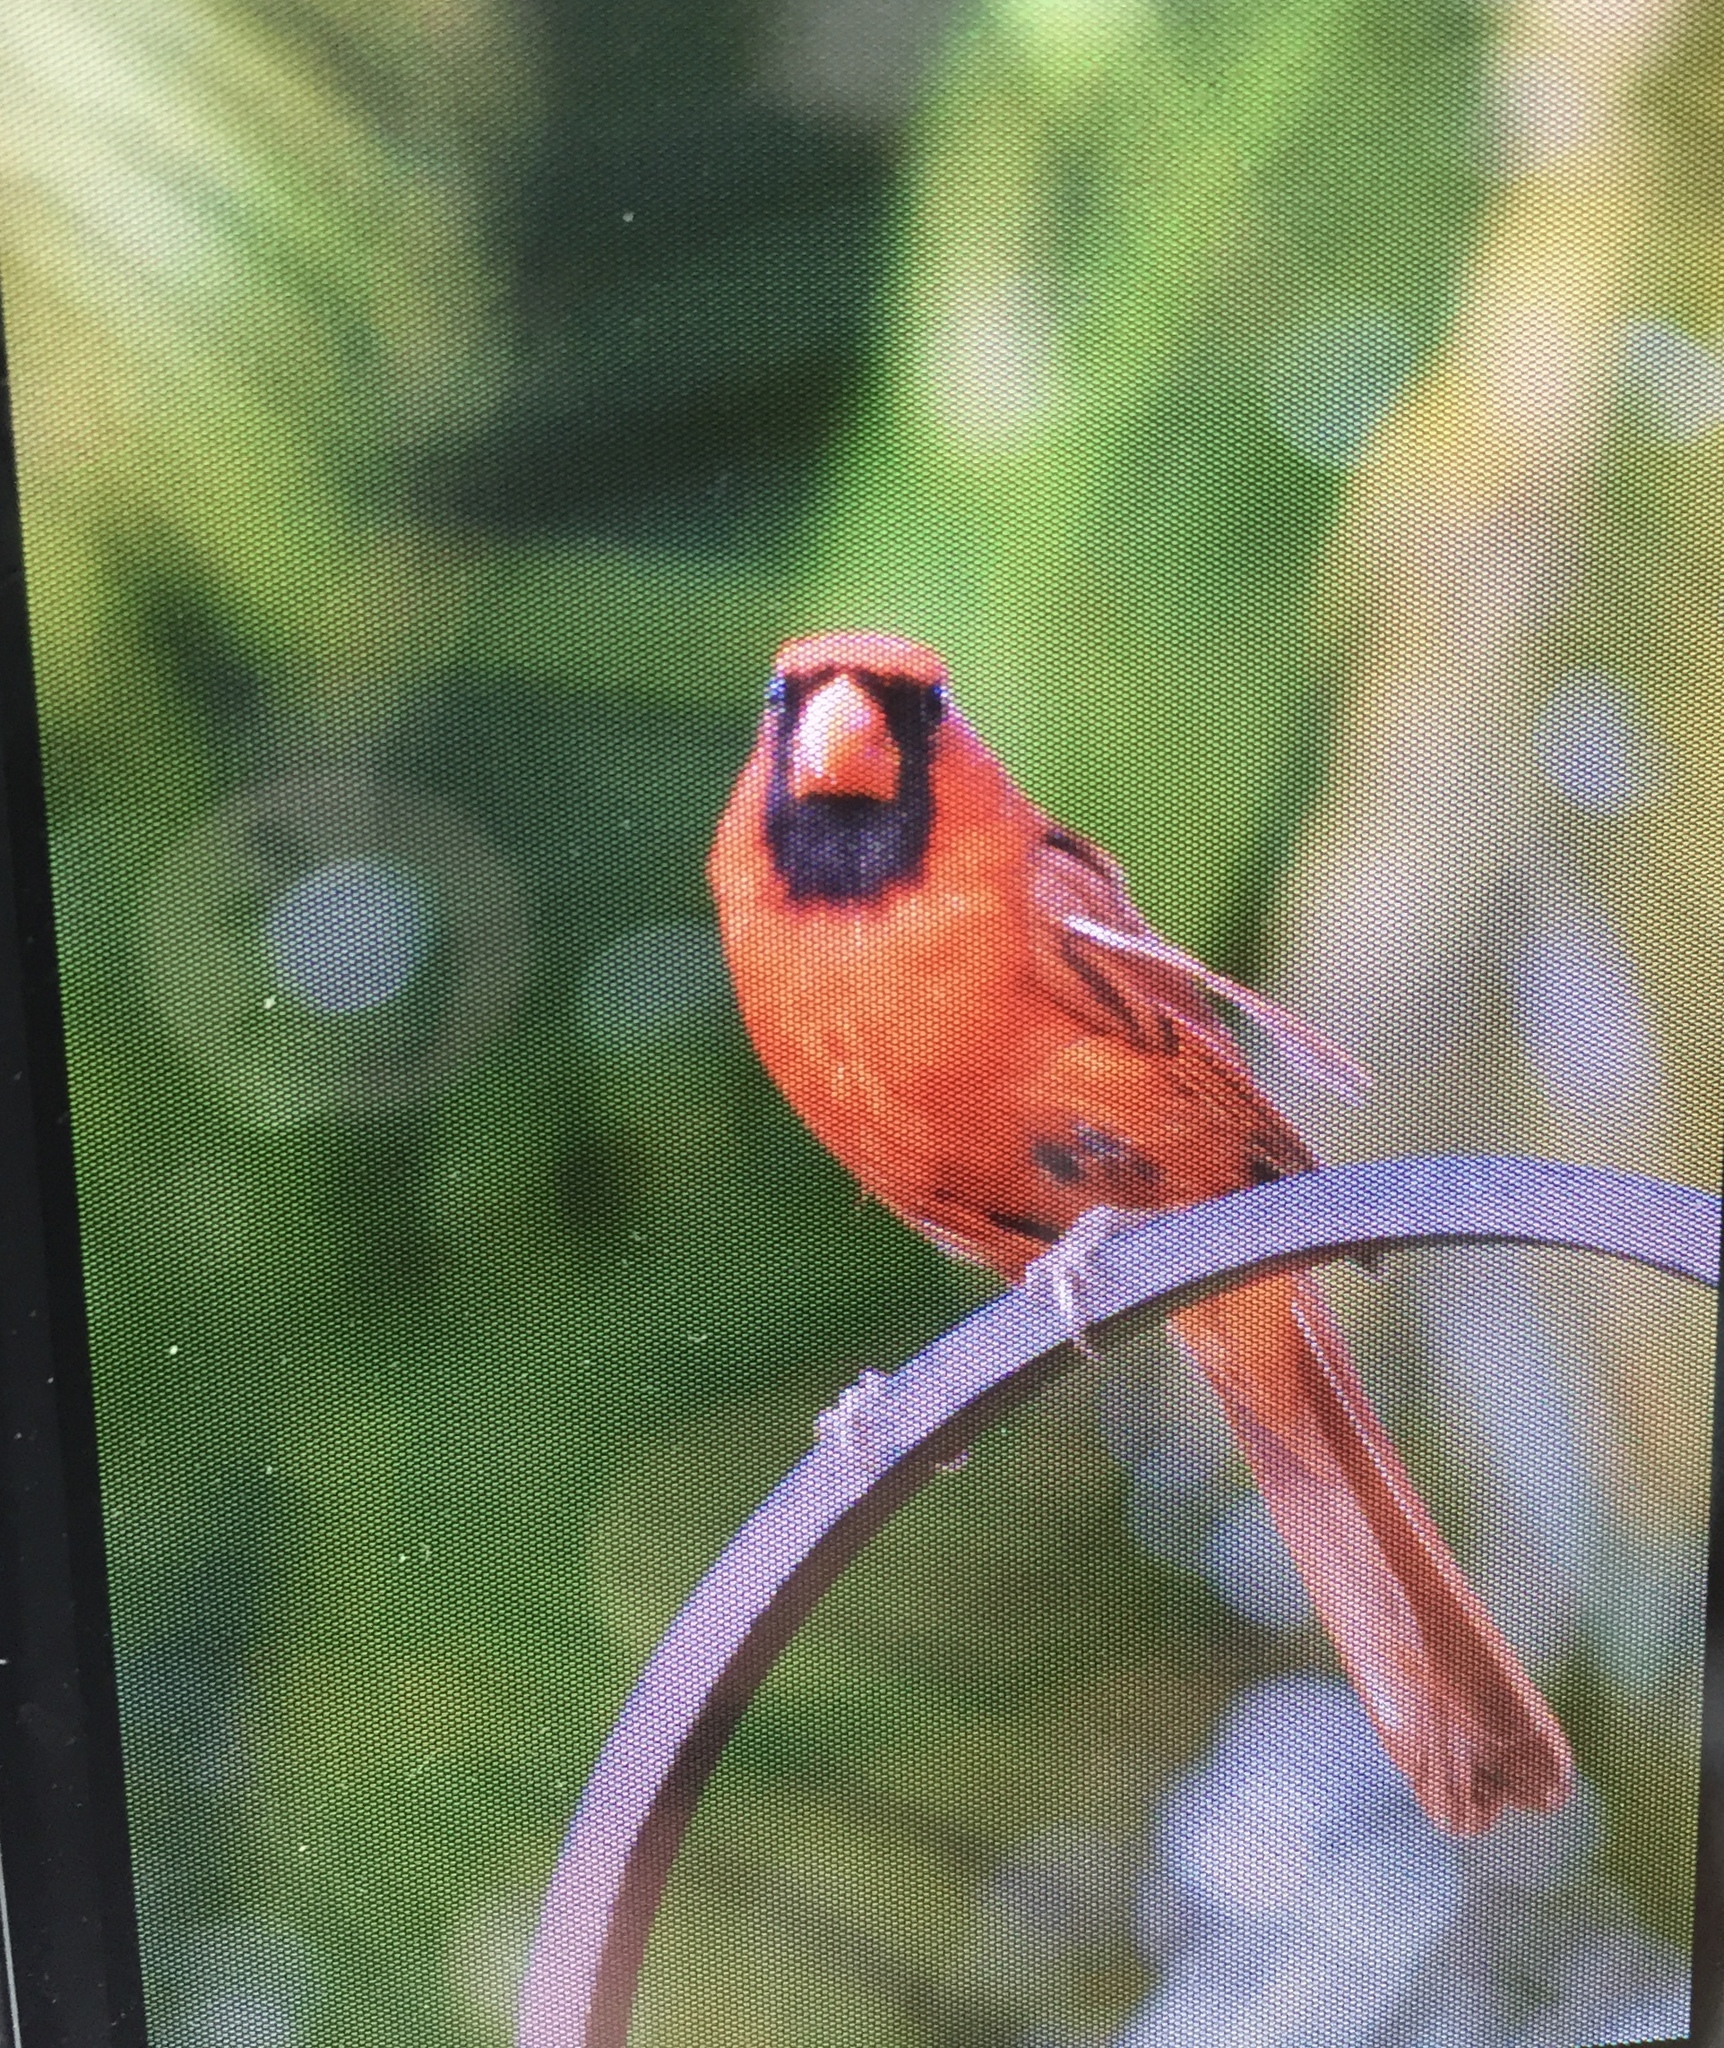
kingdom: Animalia
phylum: Chordata
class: Aves
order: Passeriformes
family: Cardinalidae
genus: Cardinalis
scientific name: Cardinalis cardinalis
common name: Northern cardinal
